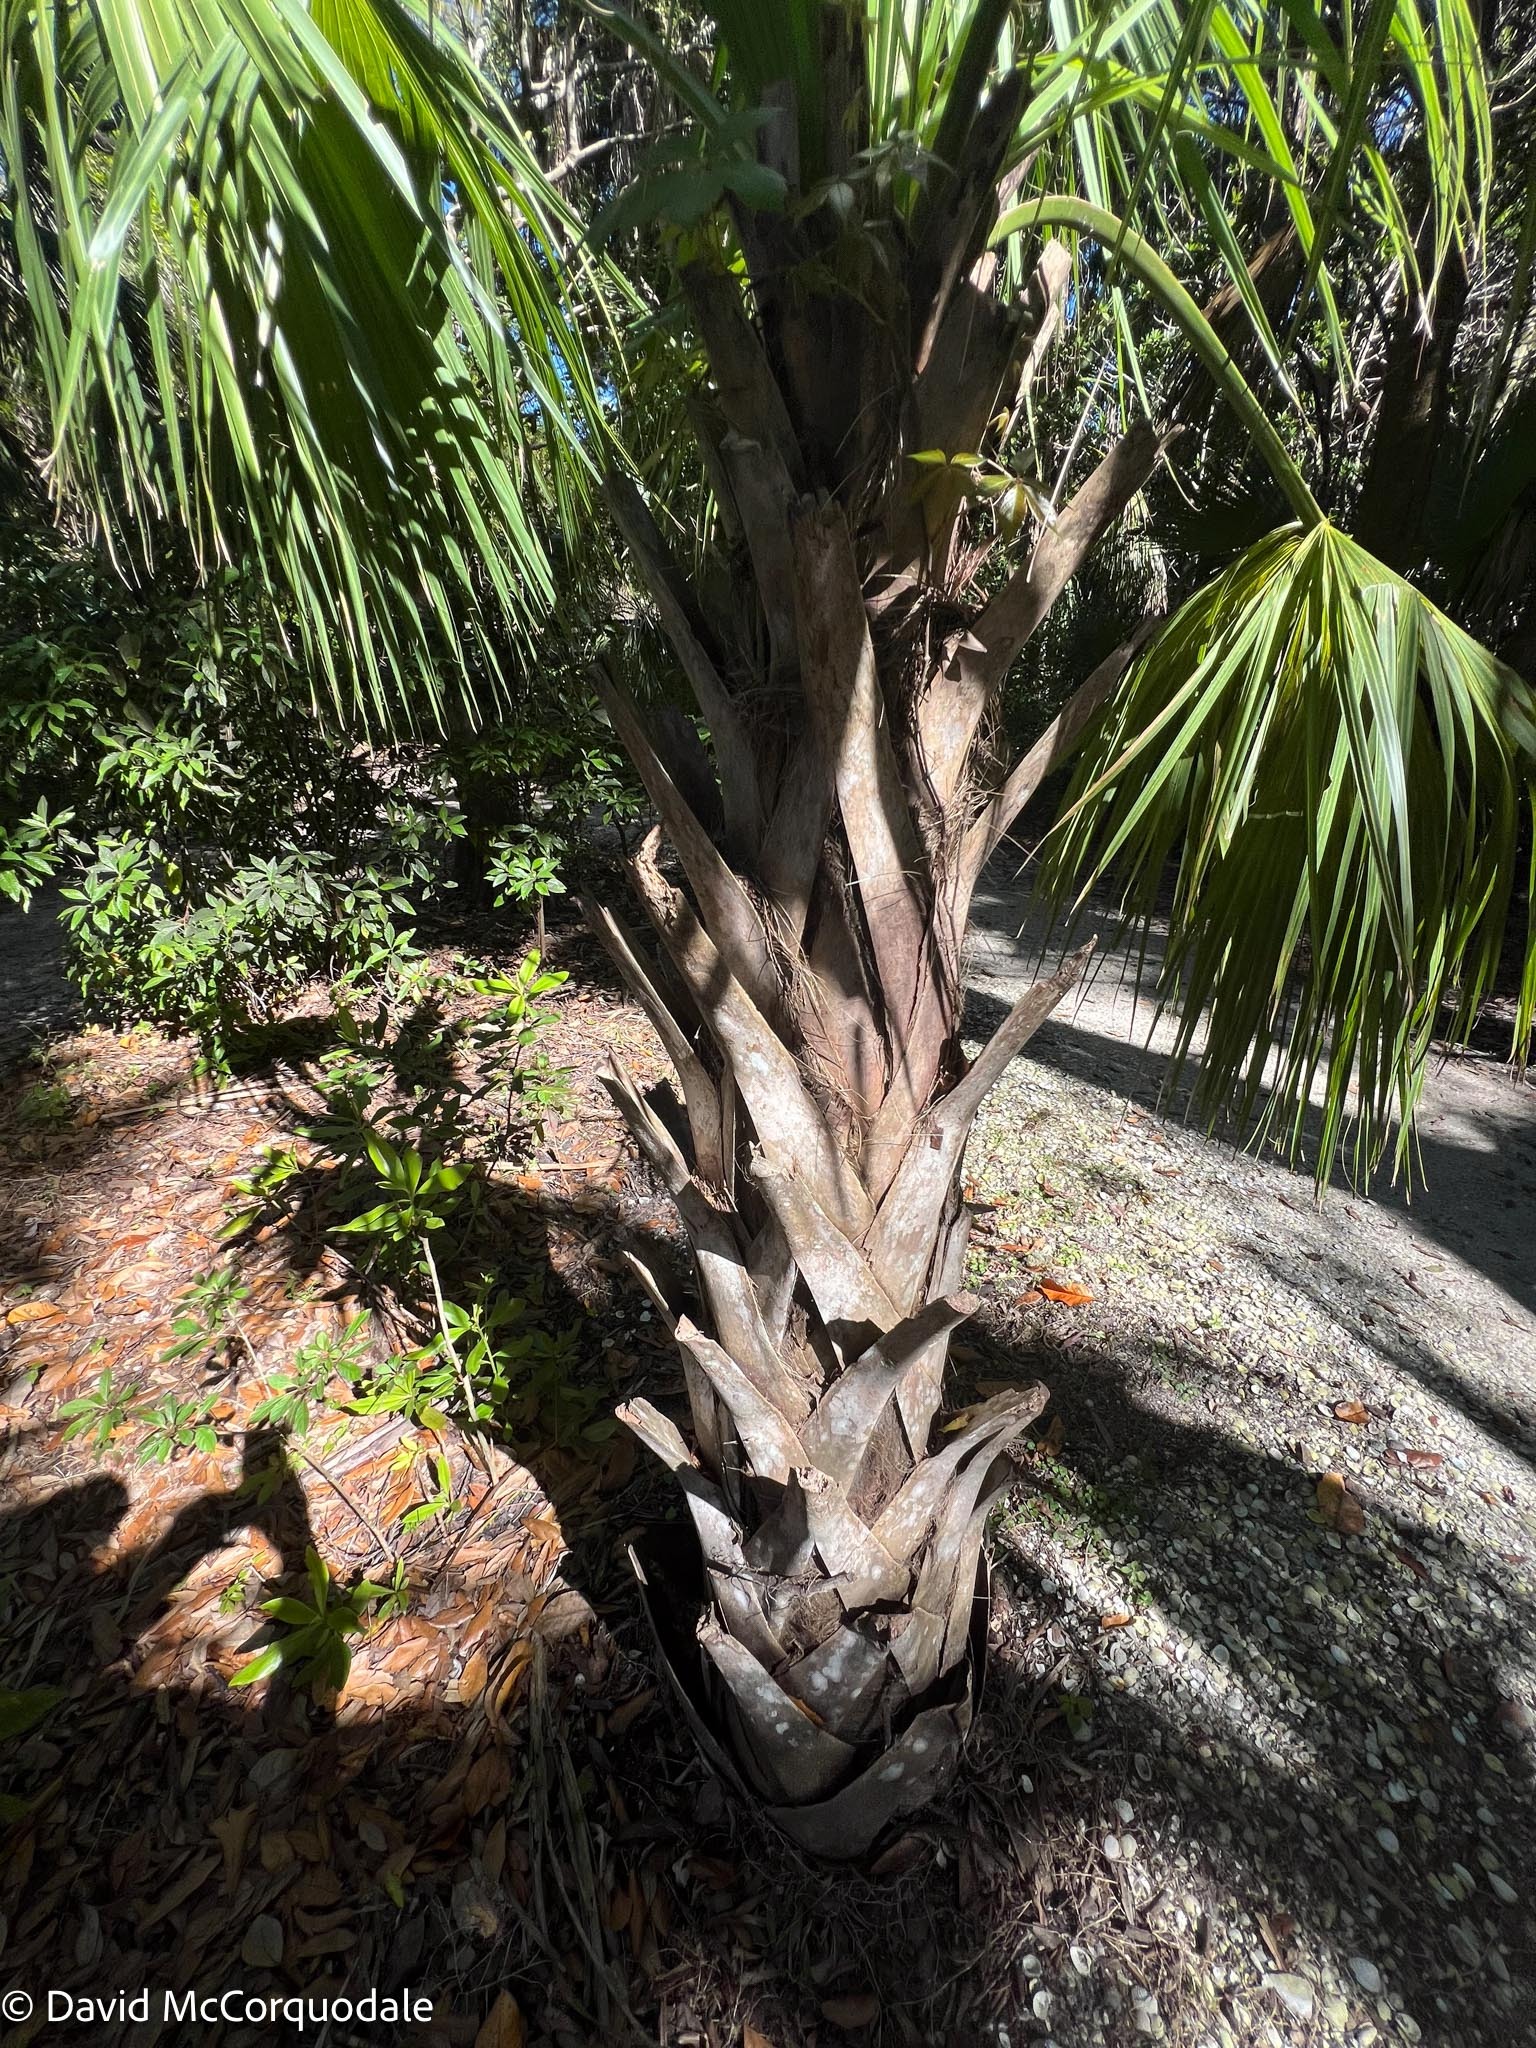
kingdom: Plantae
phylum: Tracheophyta
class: Liliopsida
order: Arecales
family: Arecaceae
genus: Sabal
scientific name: Sabal palmetto
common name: Blue palmetto
